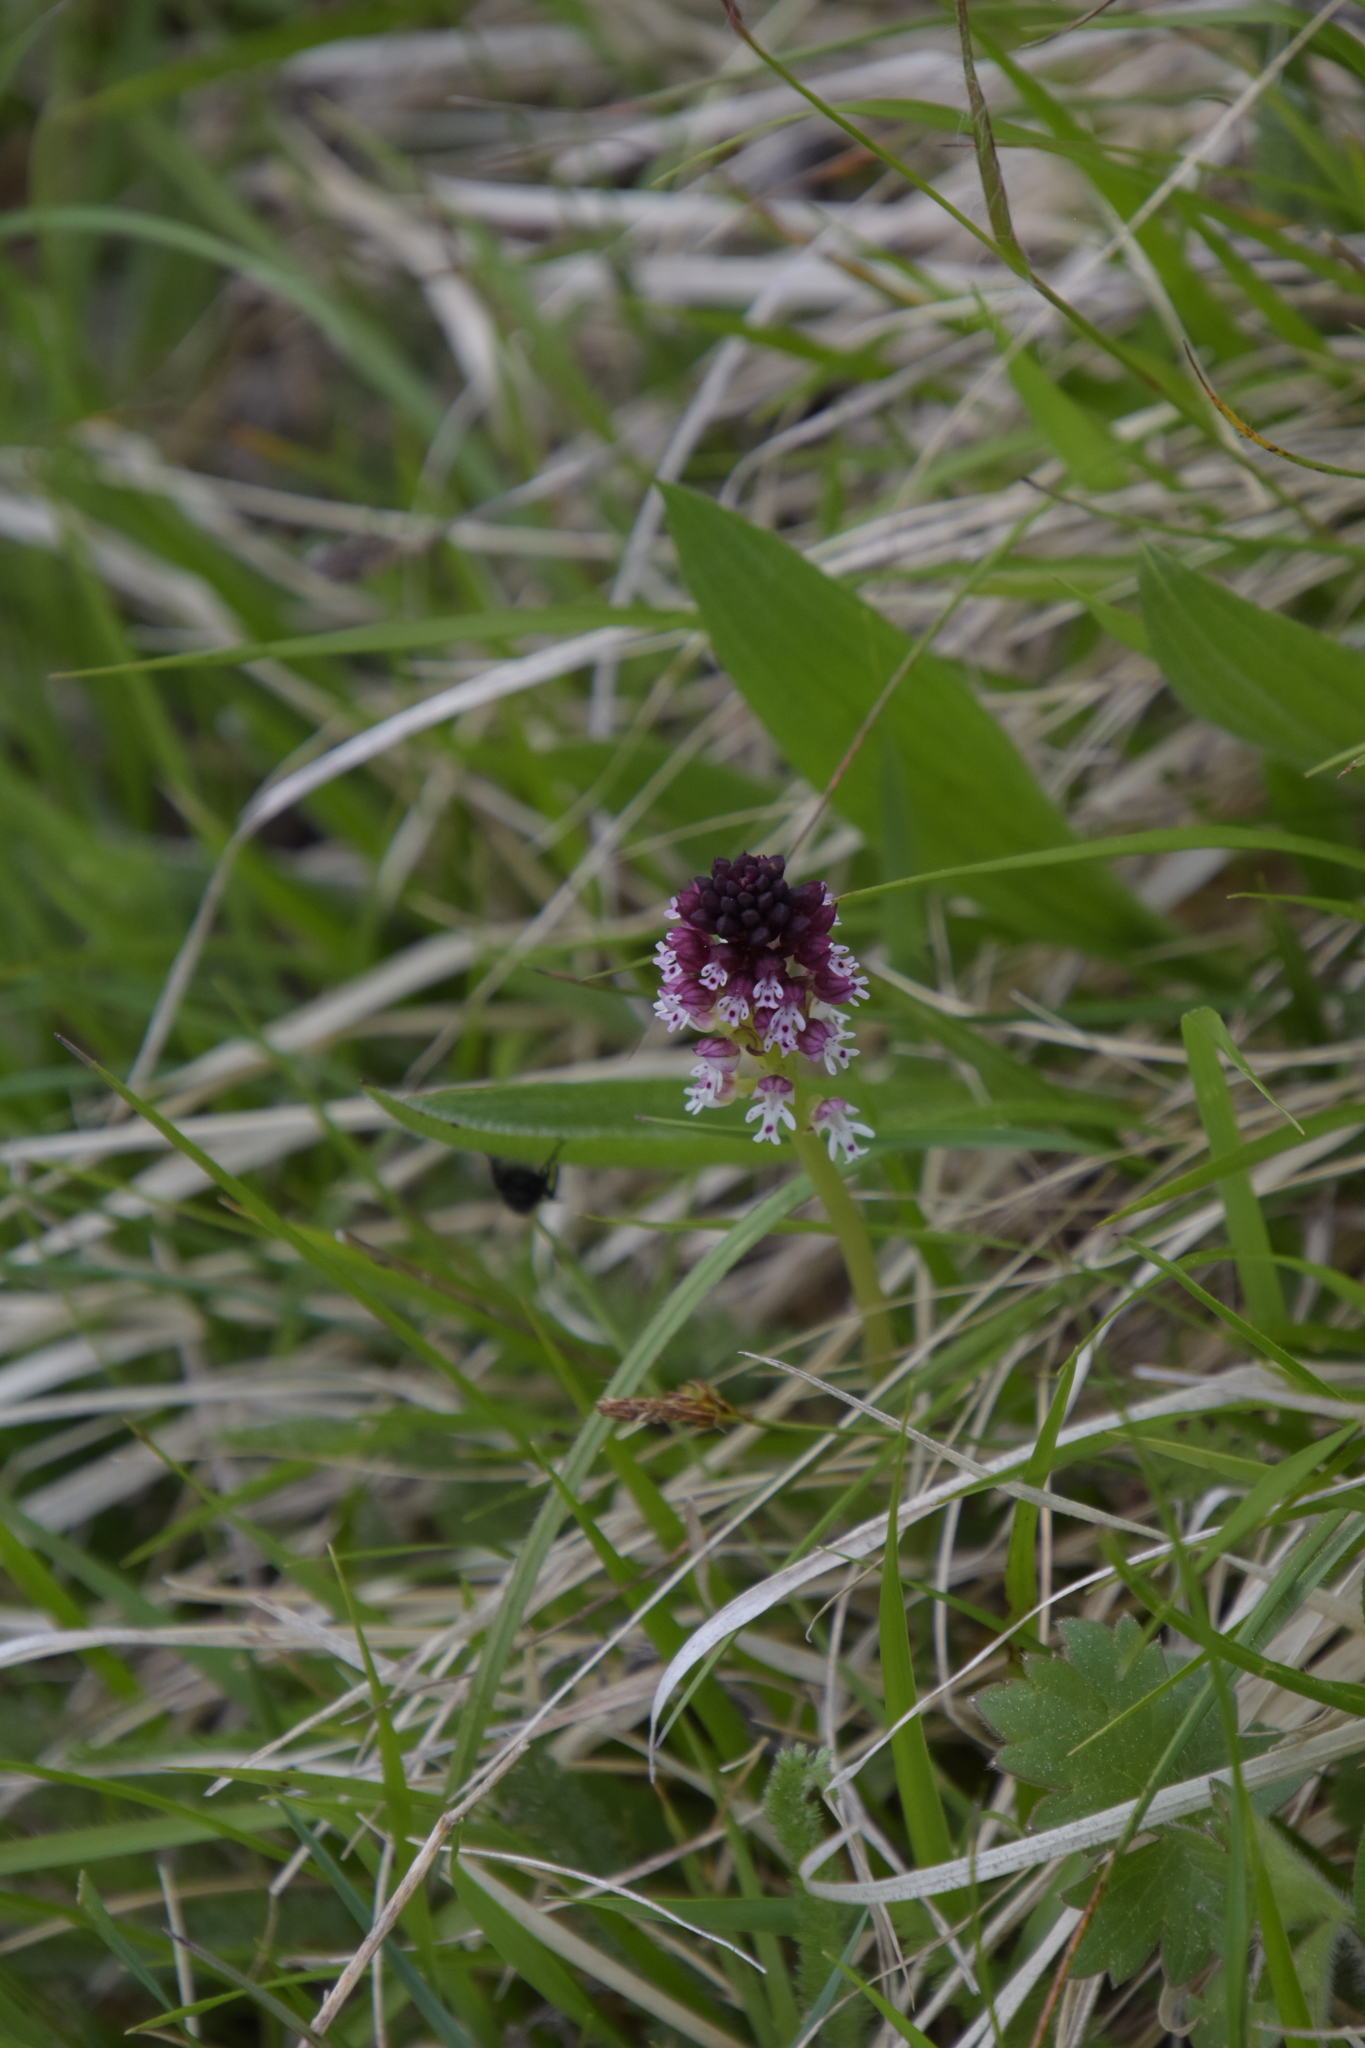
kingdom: Plantae
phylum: Tracheophyta
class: Liliopsida
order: Asparagales
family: Orchidaceae
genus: Neotinea
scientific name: Neotinea ustulata
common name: Burnt orchid
